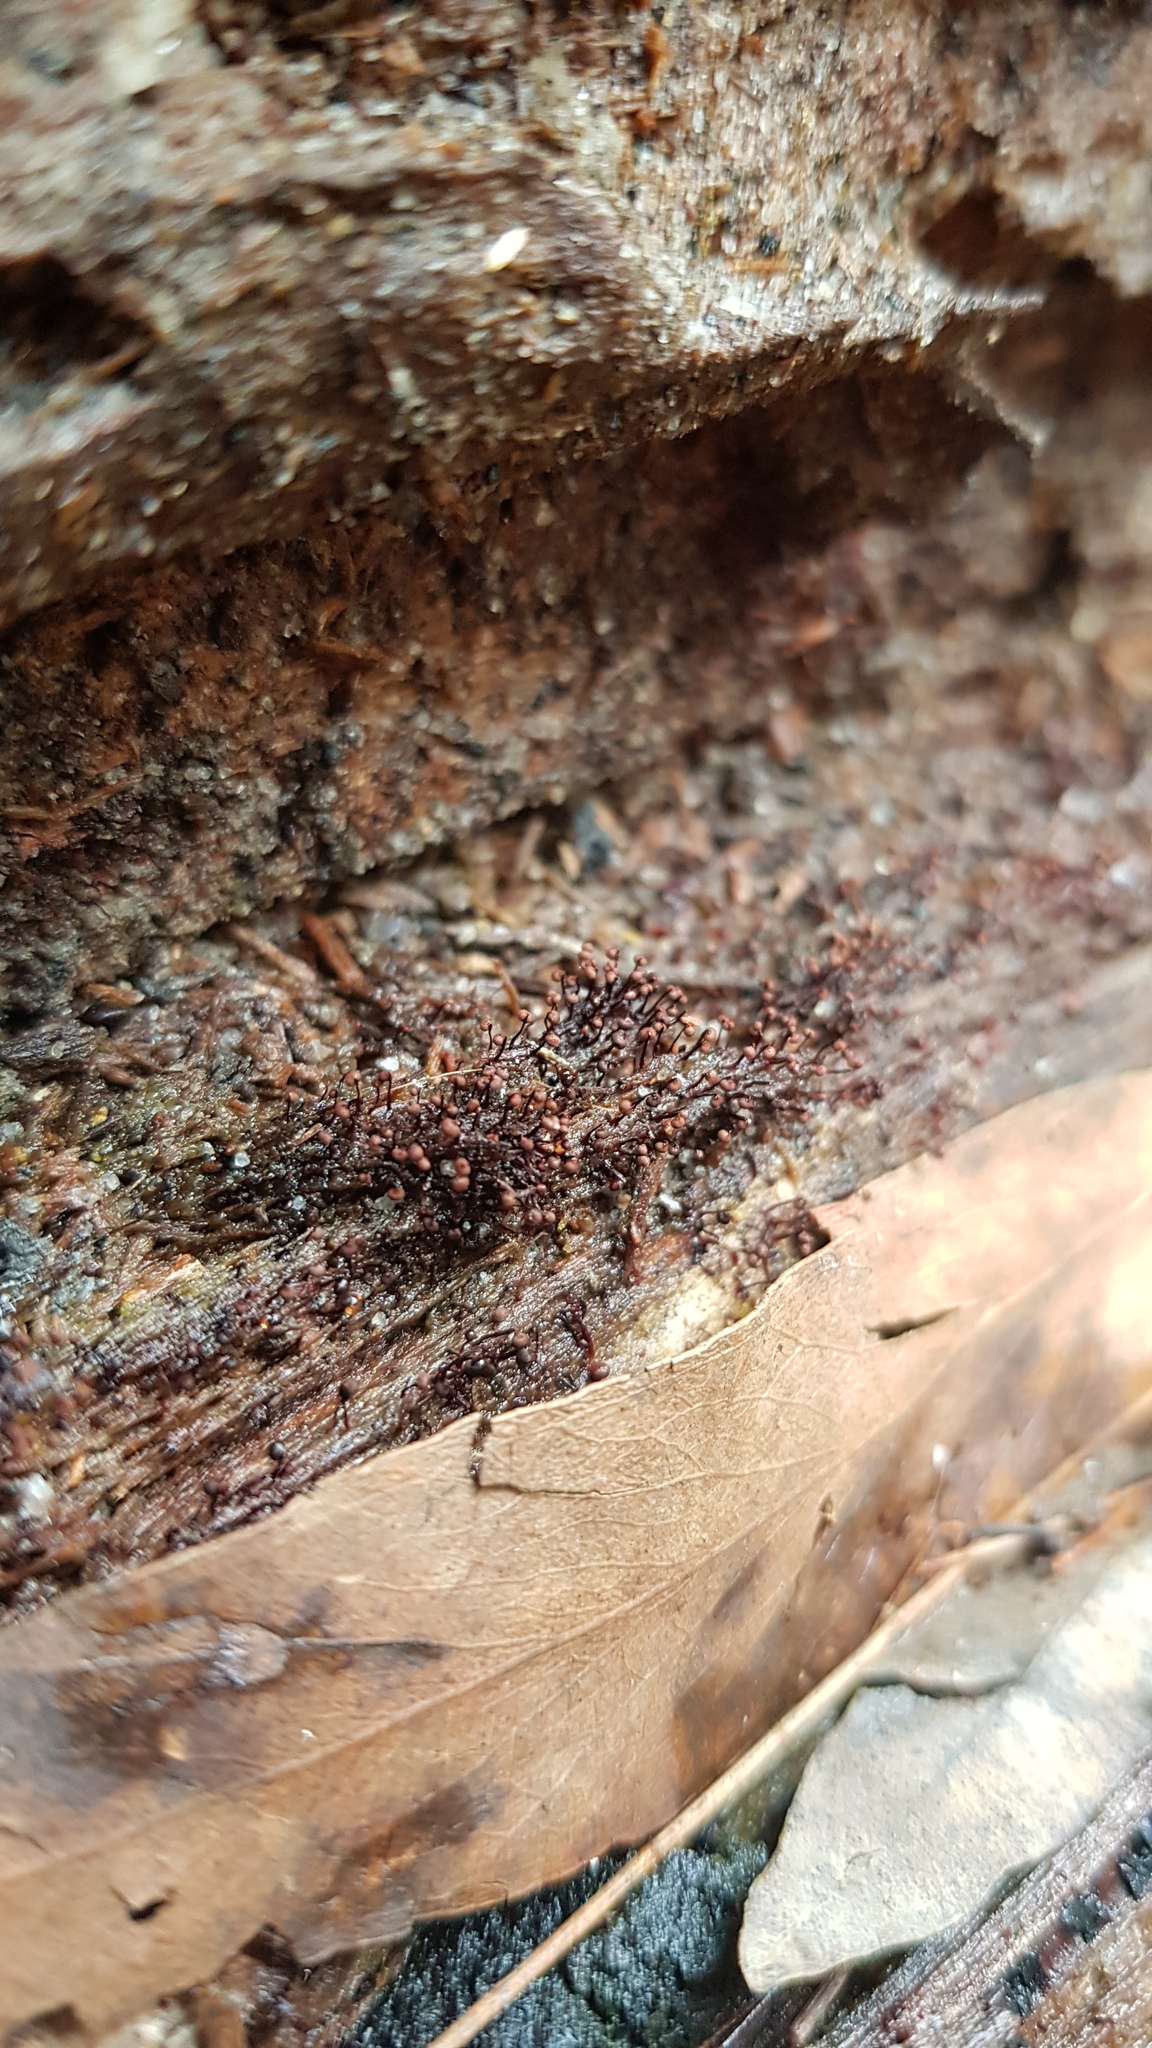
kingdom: Protozoa
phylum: Mycetozoa
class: Myxomycetes
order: Cribrariales
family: Cribrariaceae
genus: Cribraria
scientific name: Cribraria cancellata
